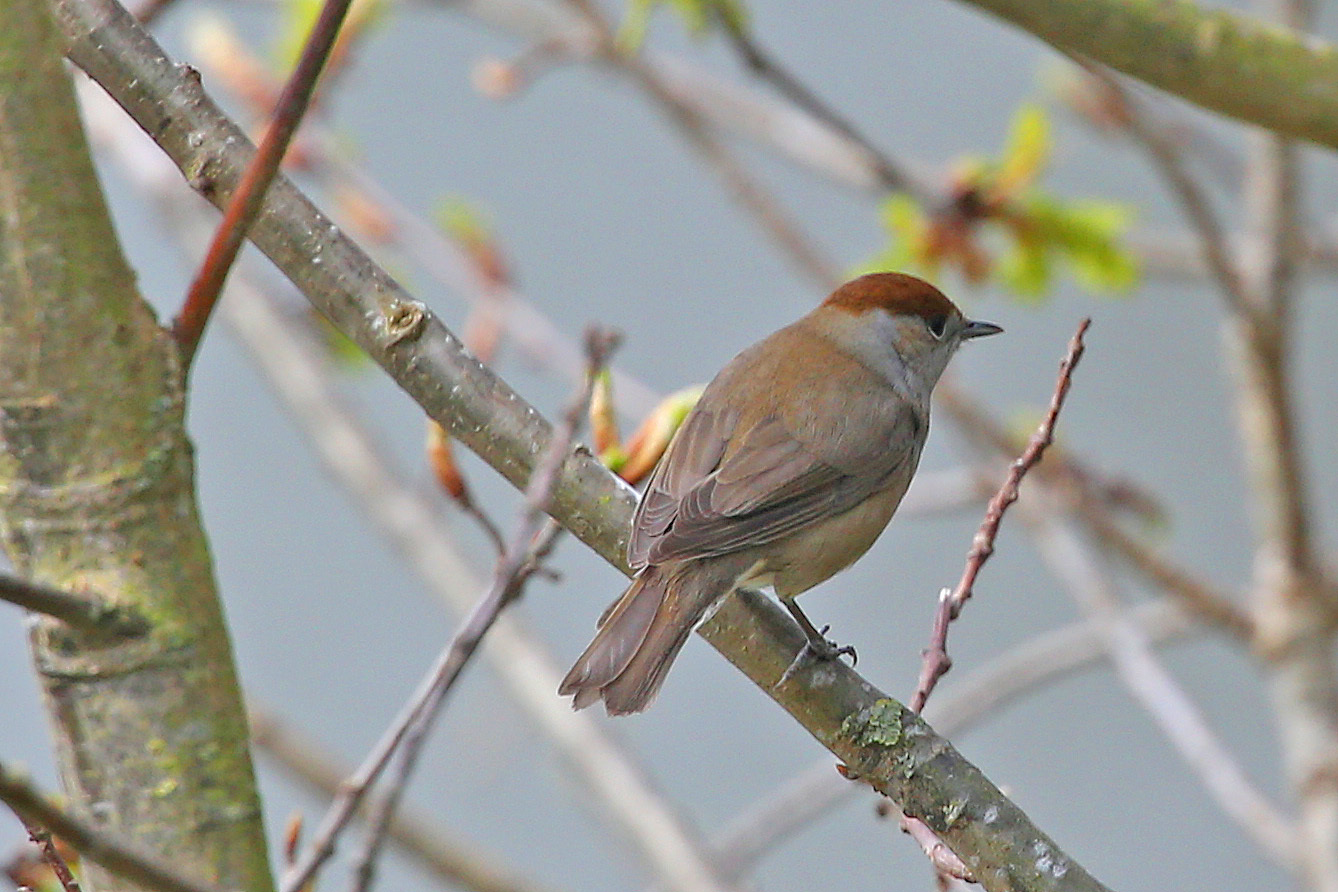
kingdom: Animalia
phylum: Chordata
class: Aves
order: Passeriformes
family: Sylviidae
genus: Sylvia
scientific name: Sylvia atricapilla
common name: Eurasian blackcap
